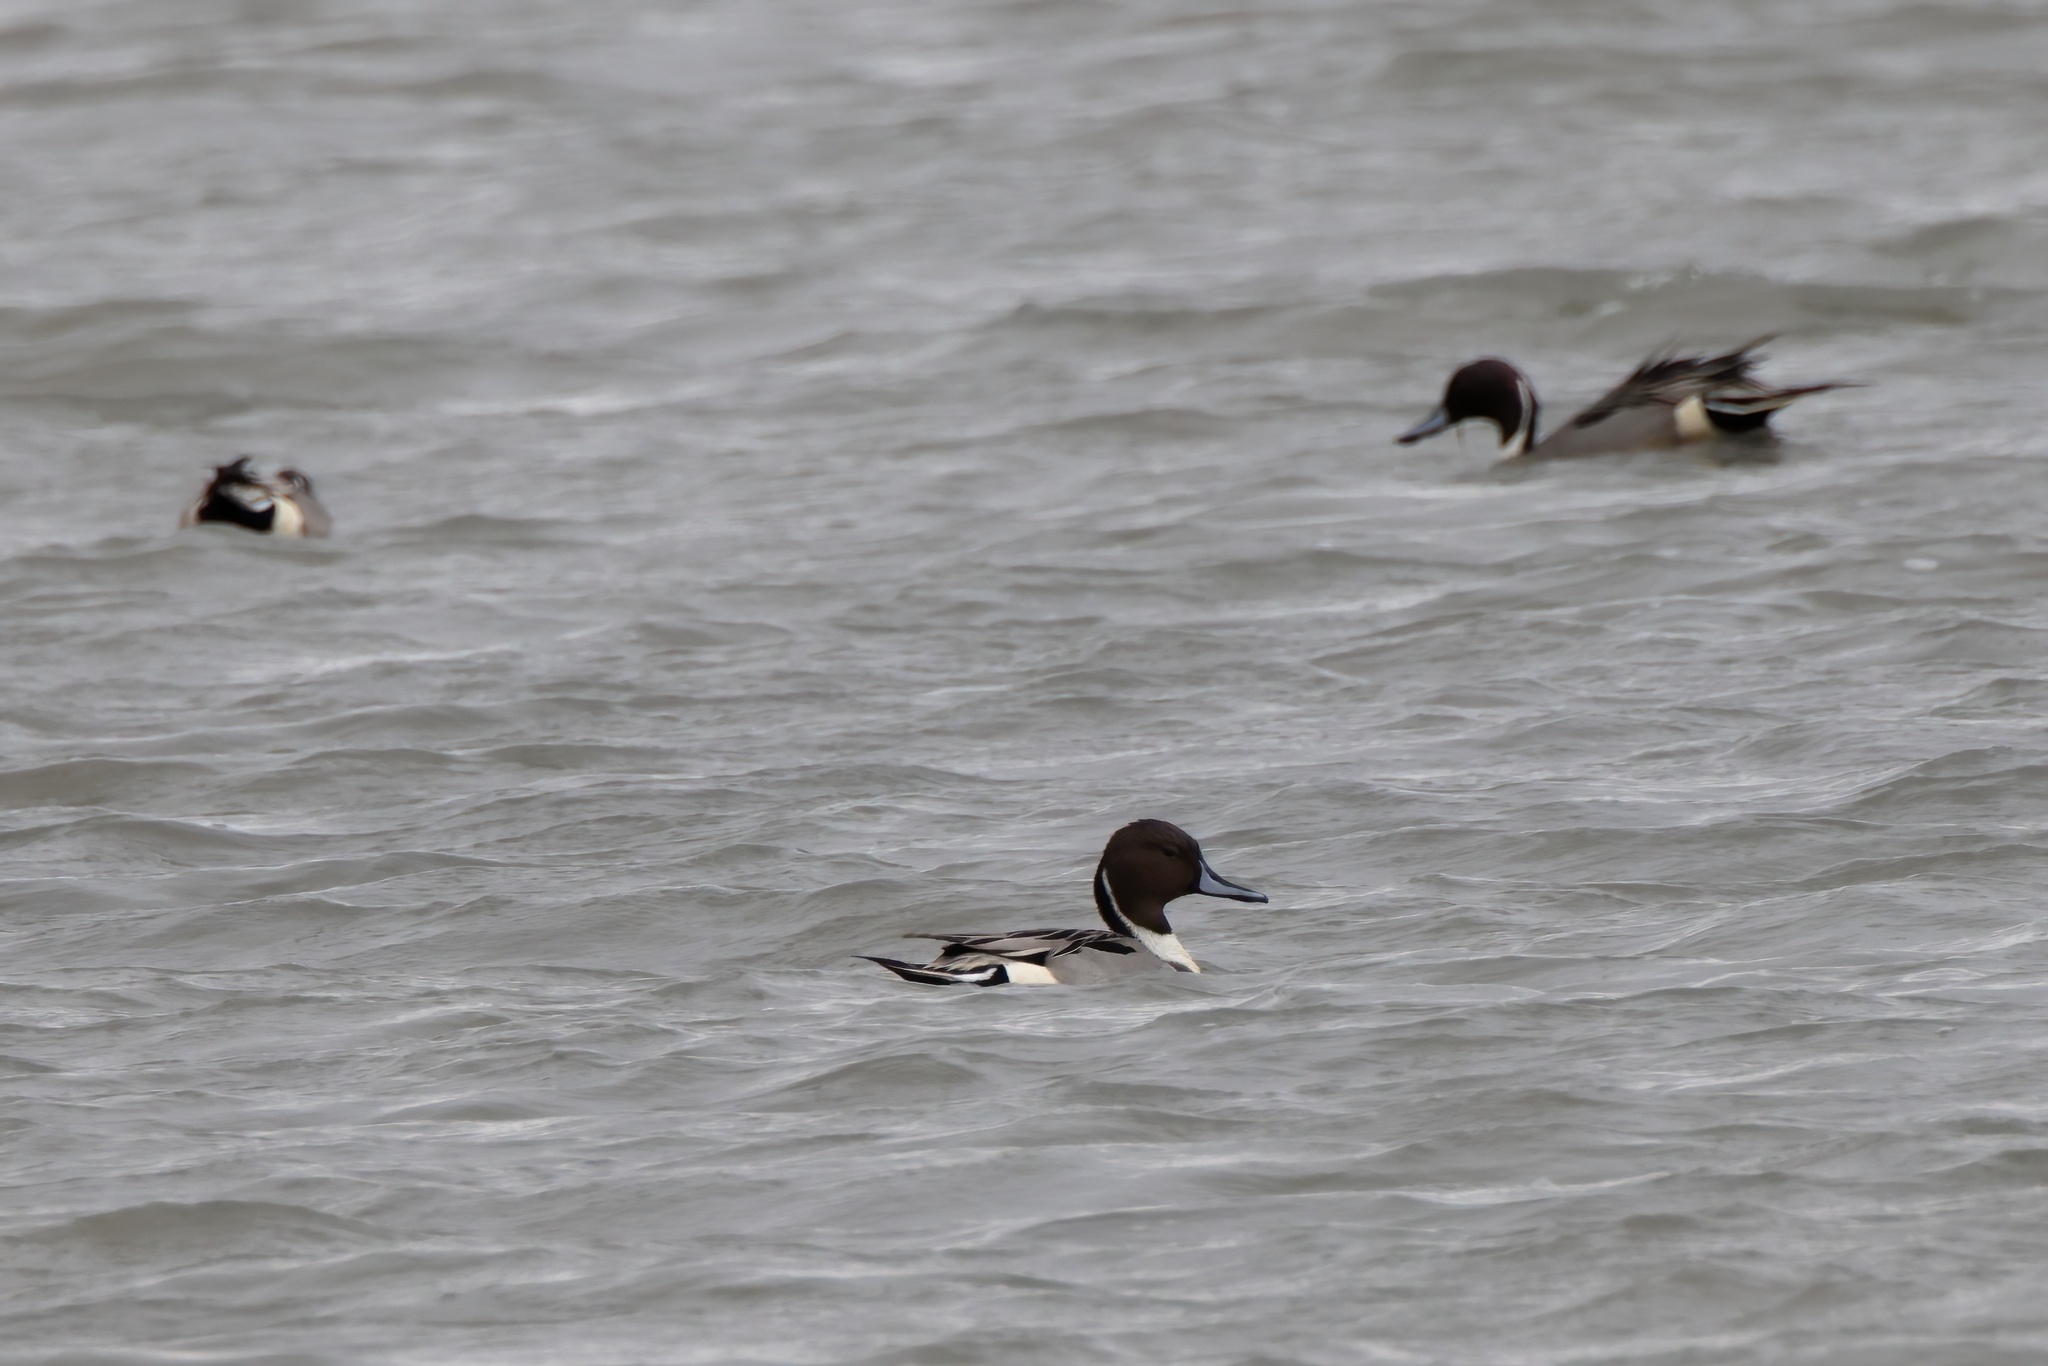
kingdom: Animalia
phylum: Chordata
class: Aves
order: Anseriformes
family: Anatidae
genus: Anas
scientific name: Anas acuta
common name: Northern pintail
